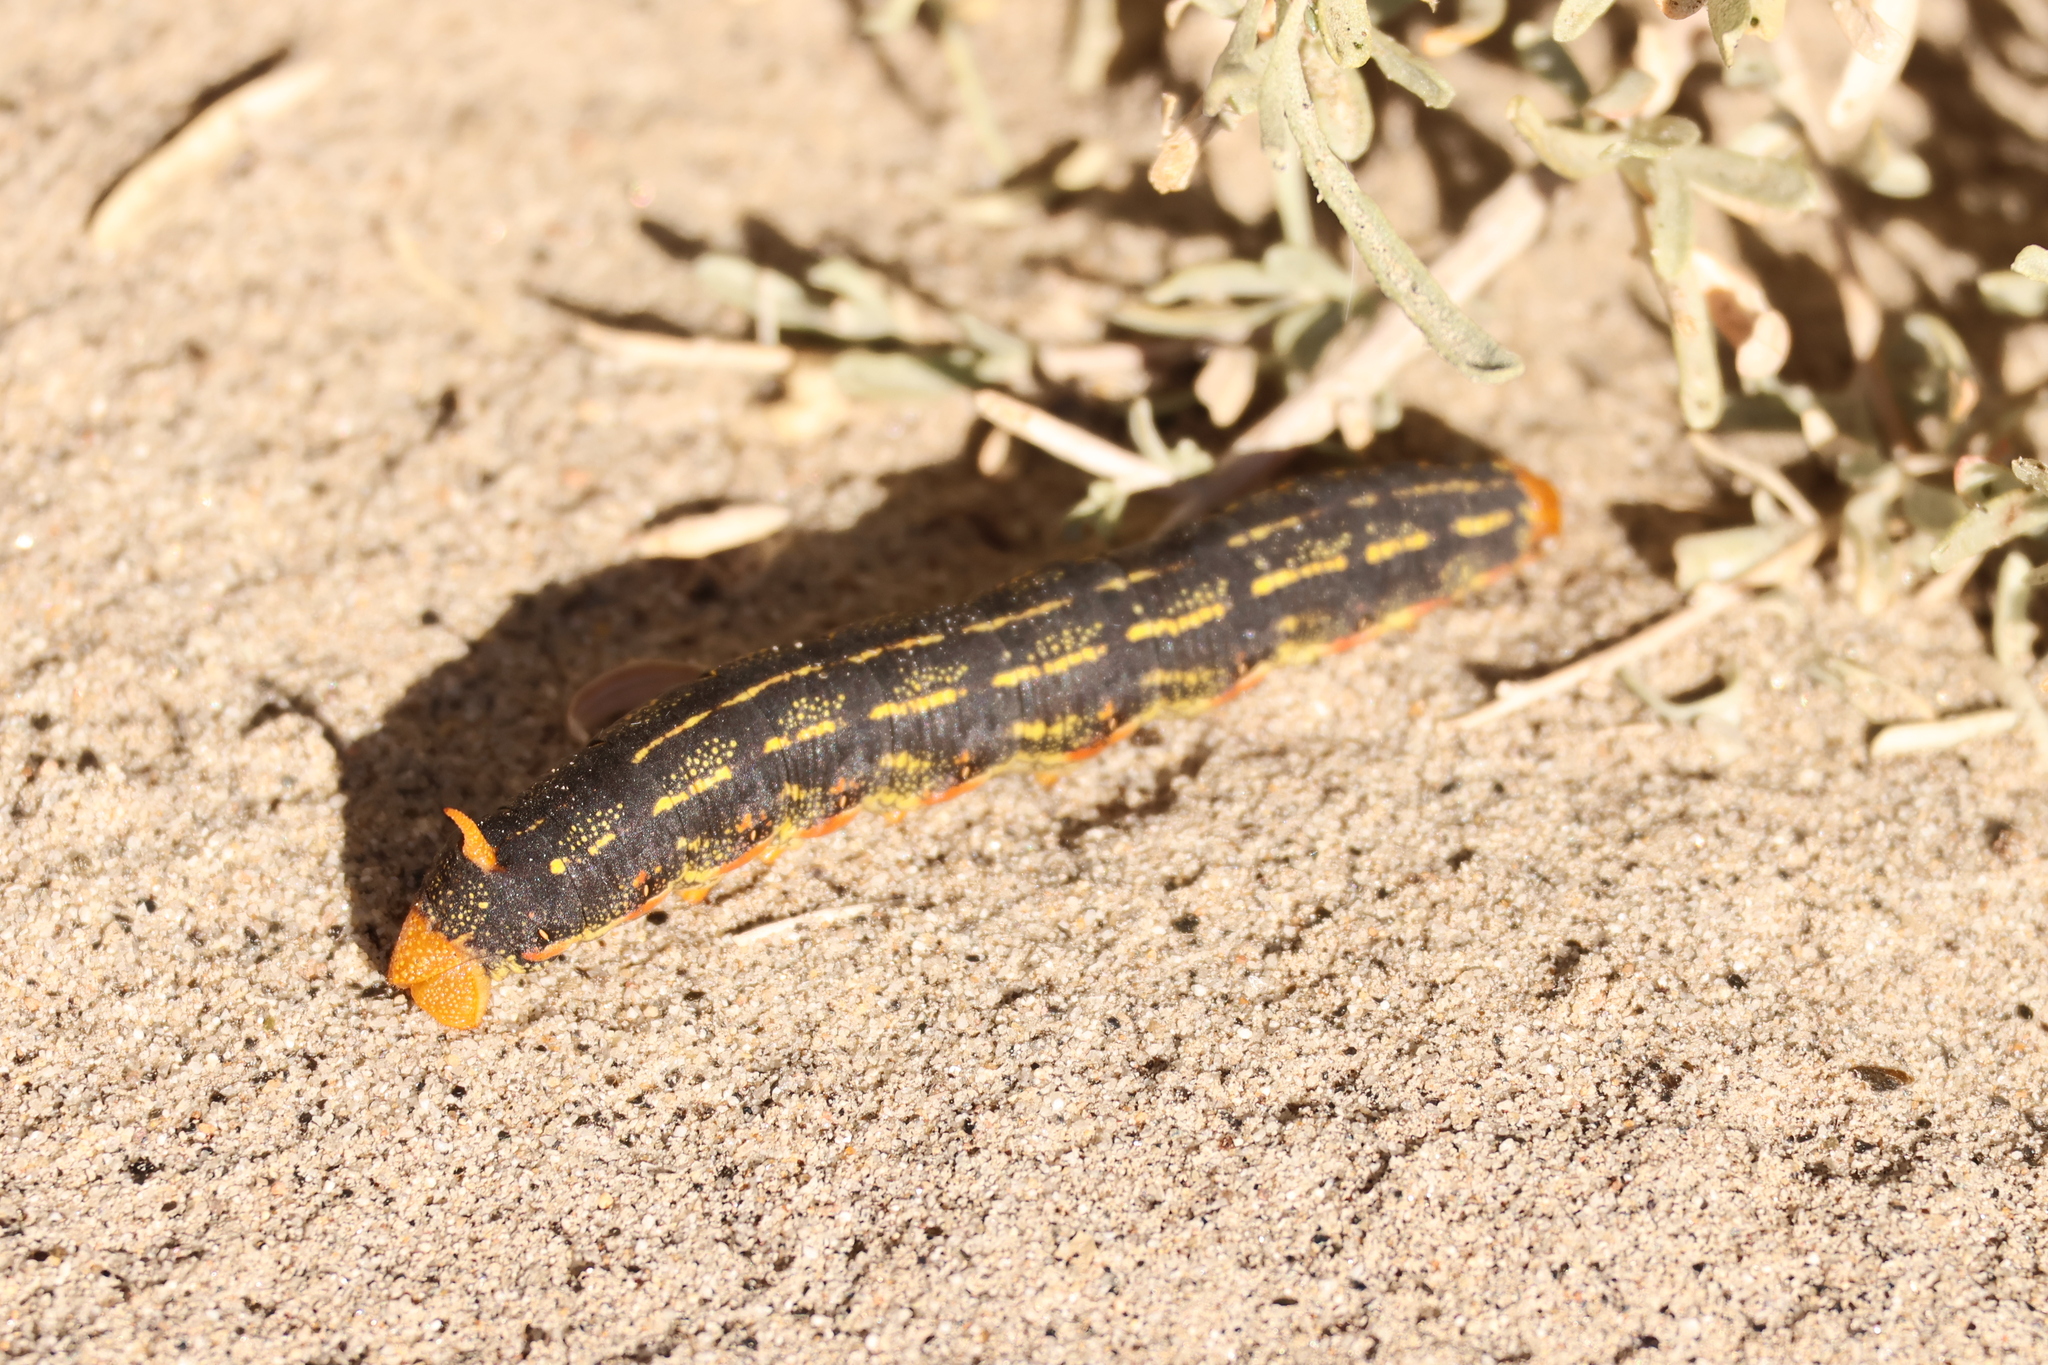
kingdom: Animalia
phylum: Arthropoda
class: Insecta
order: Lepidoptera
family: Sphingidae
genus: Hyles
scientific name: Hyles lineata
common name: White-lined sphinx
